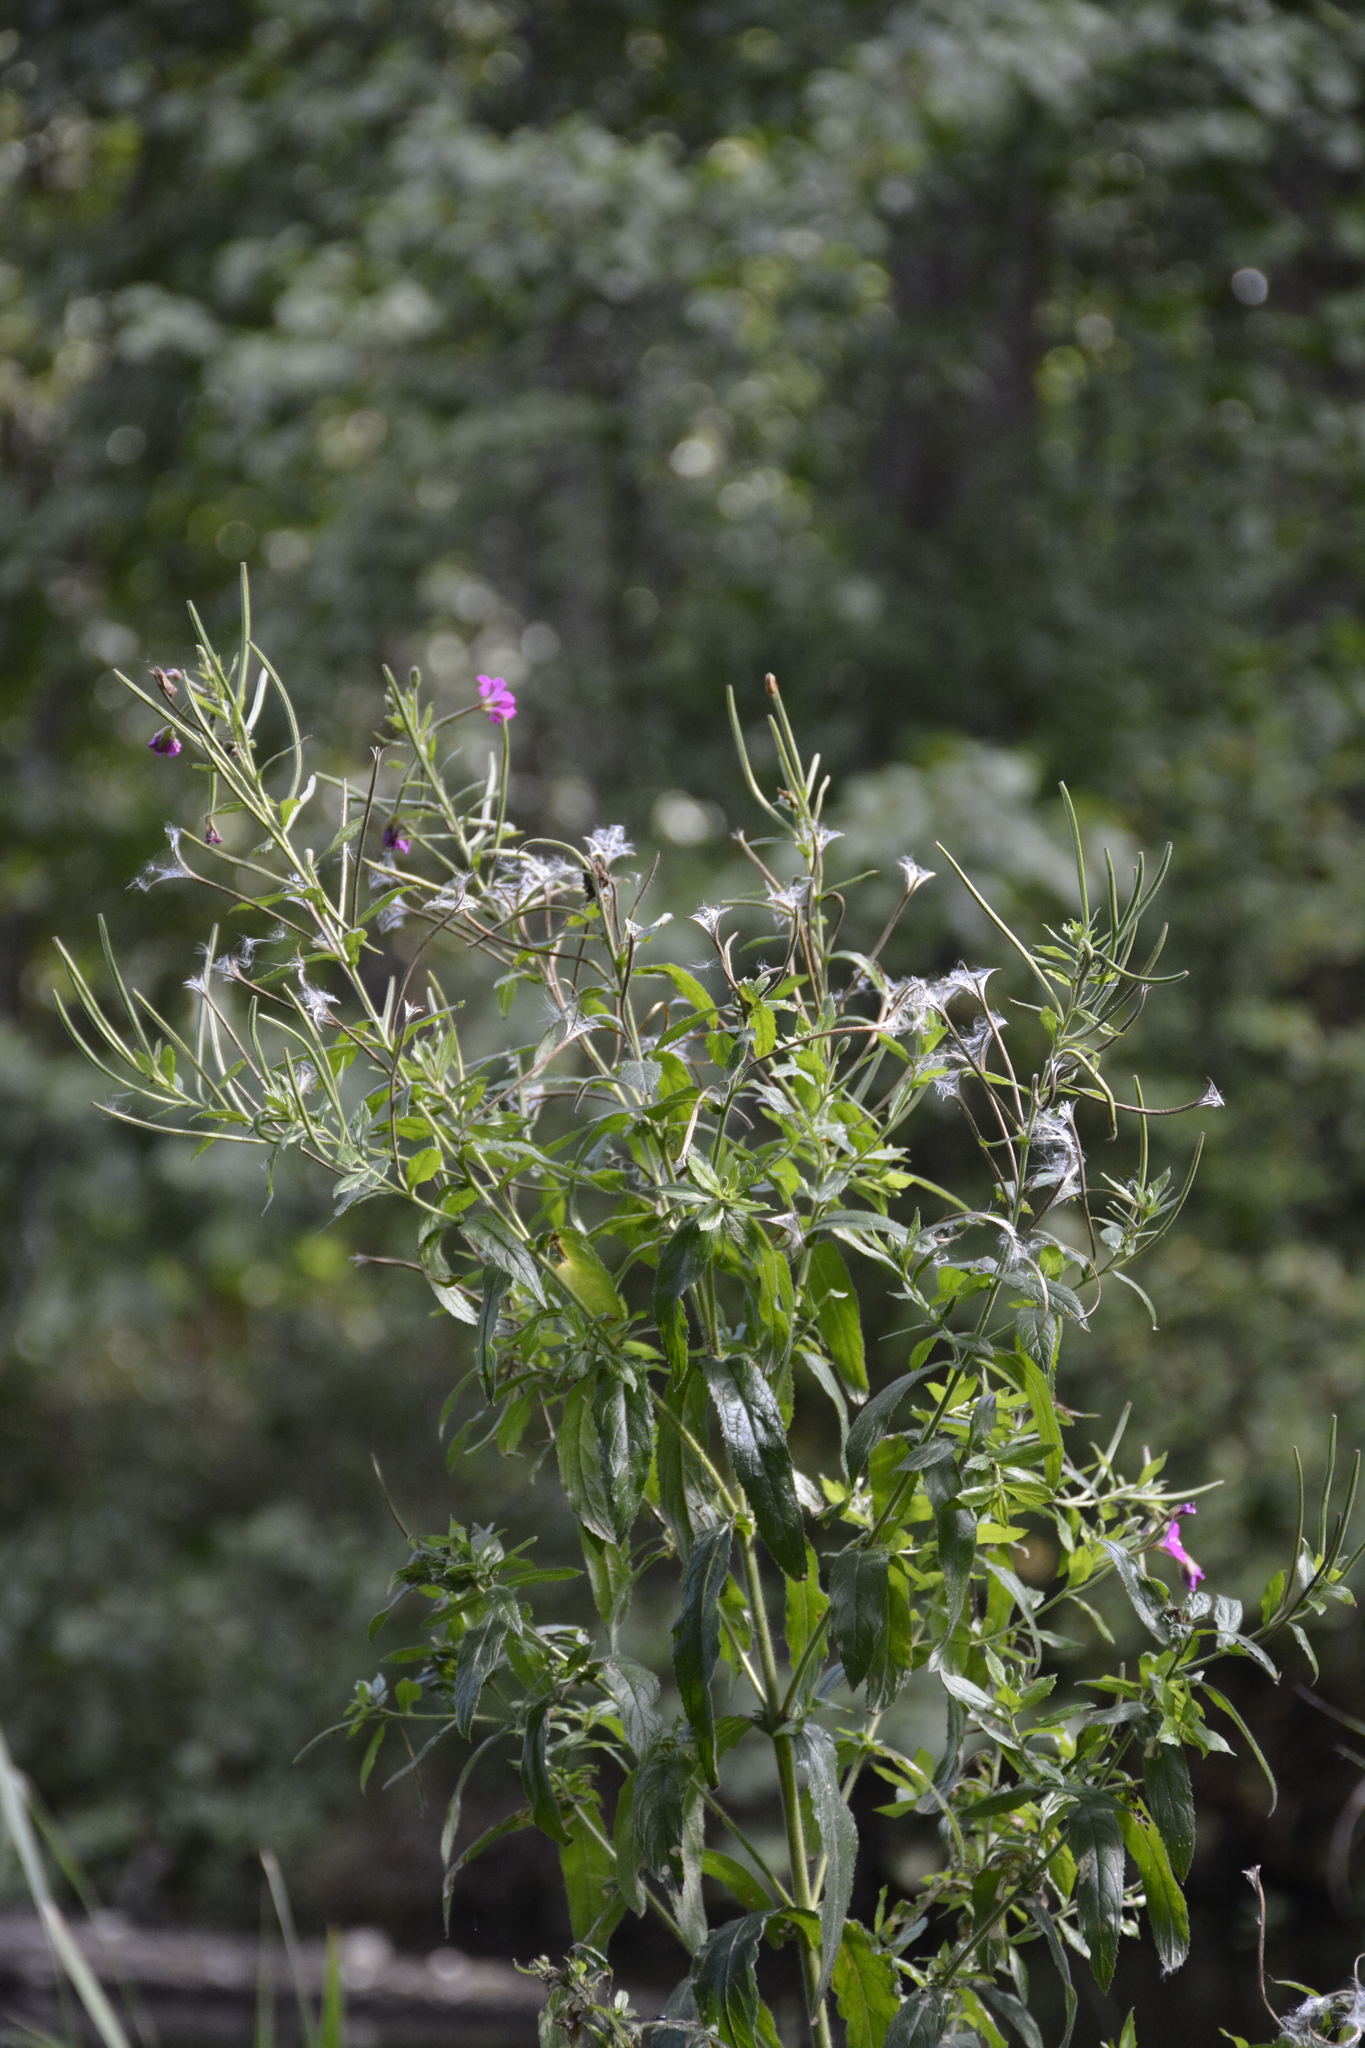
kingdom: Plantae
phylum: Tracheophyta
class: Magnoliopsida
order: Myrtales
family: Onagraceae
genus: Epilobium
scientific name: Epilobium hirsutum
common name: Great willowherb
